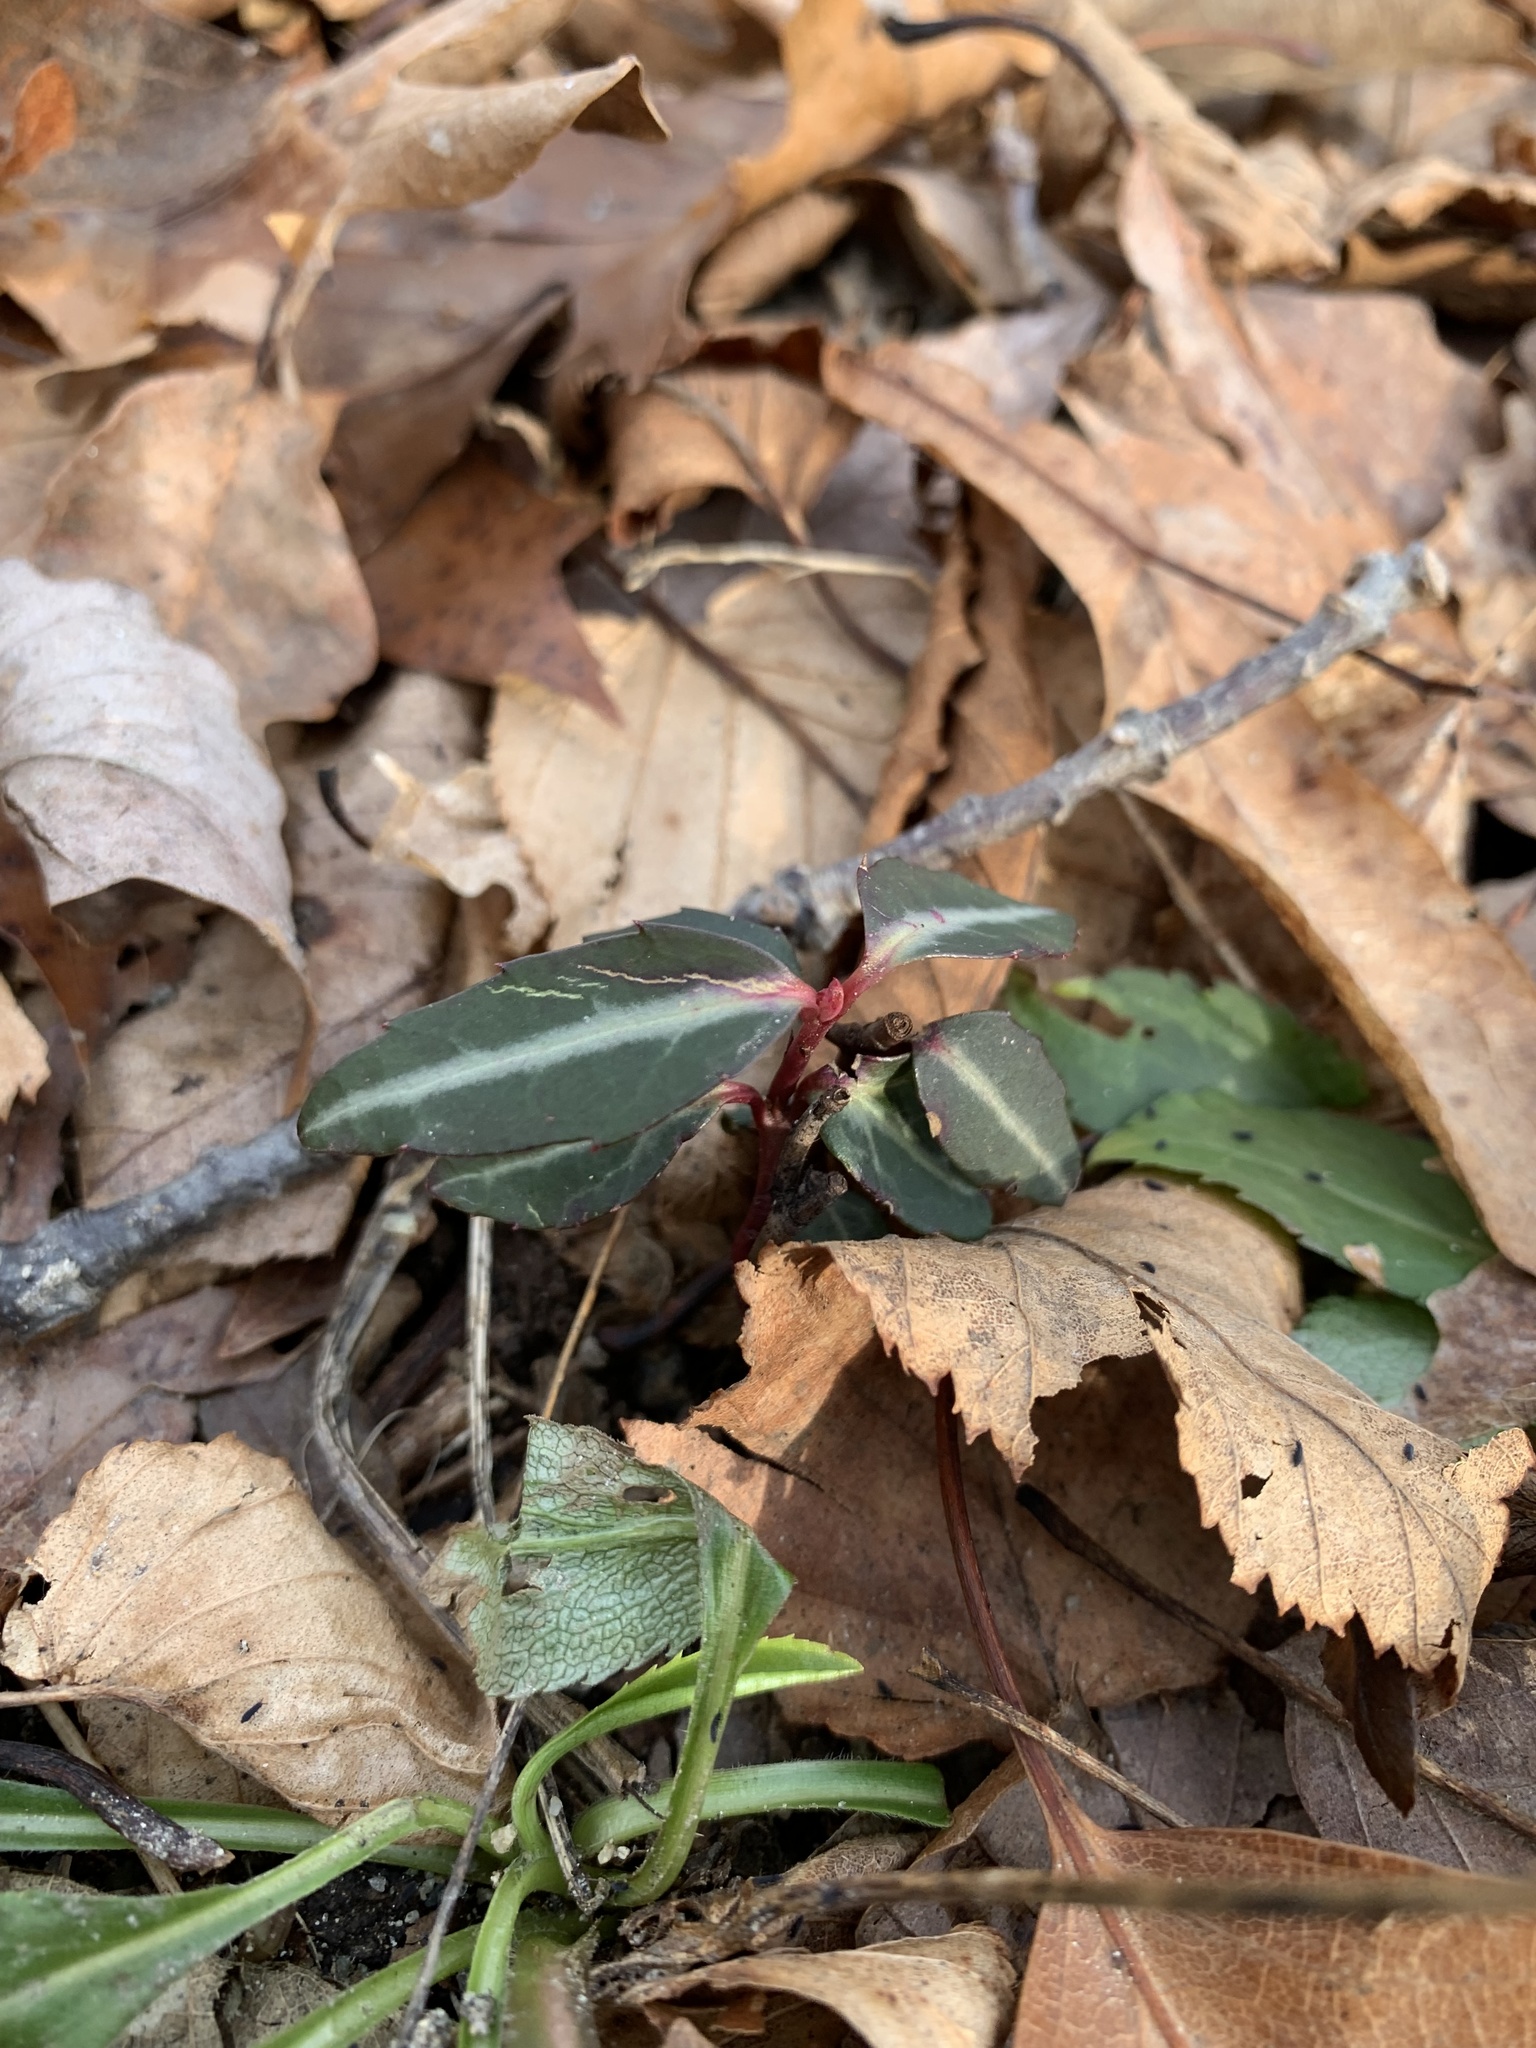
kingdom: Plantae
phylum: Tracheophyta
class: Magnoliopsida
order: Ericales
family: Ericaceae
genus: Chimaphila
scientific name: Chimaphila maculata
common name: Spotted pipsissewa
